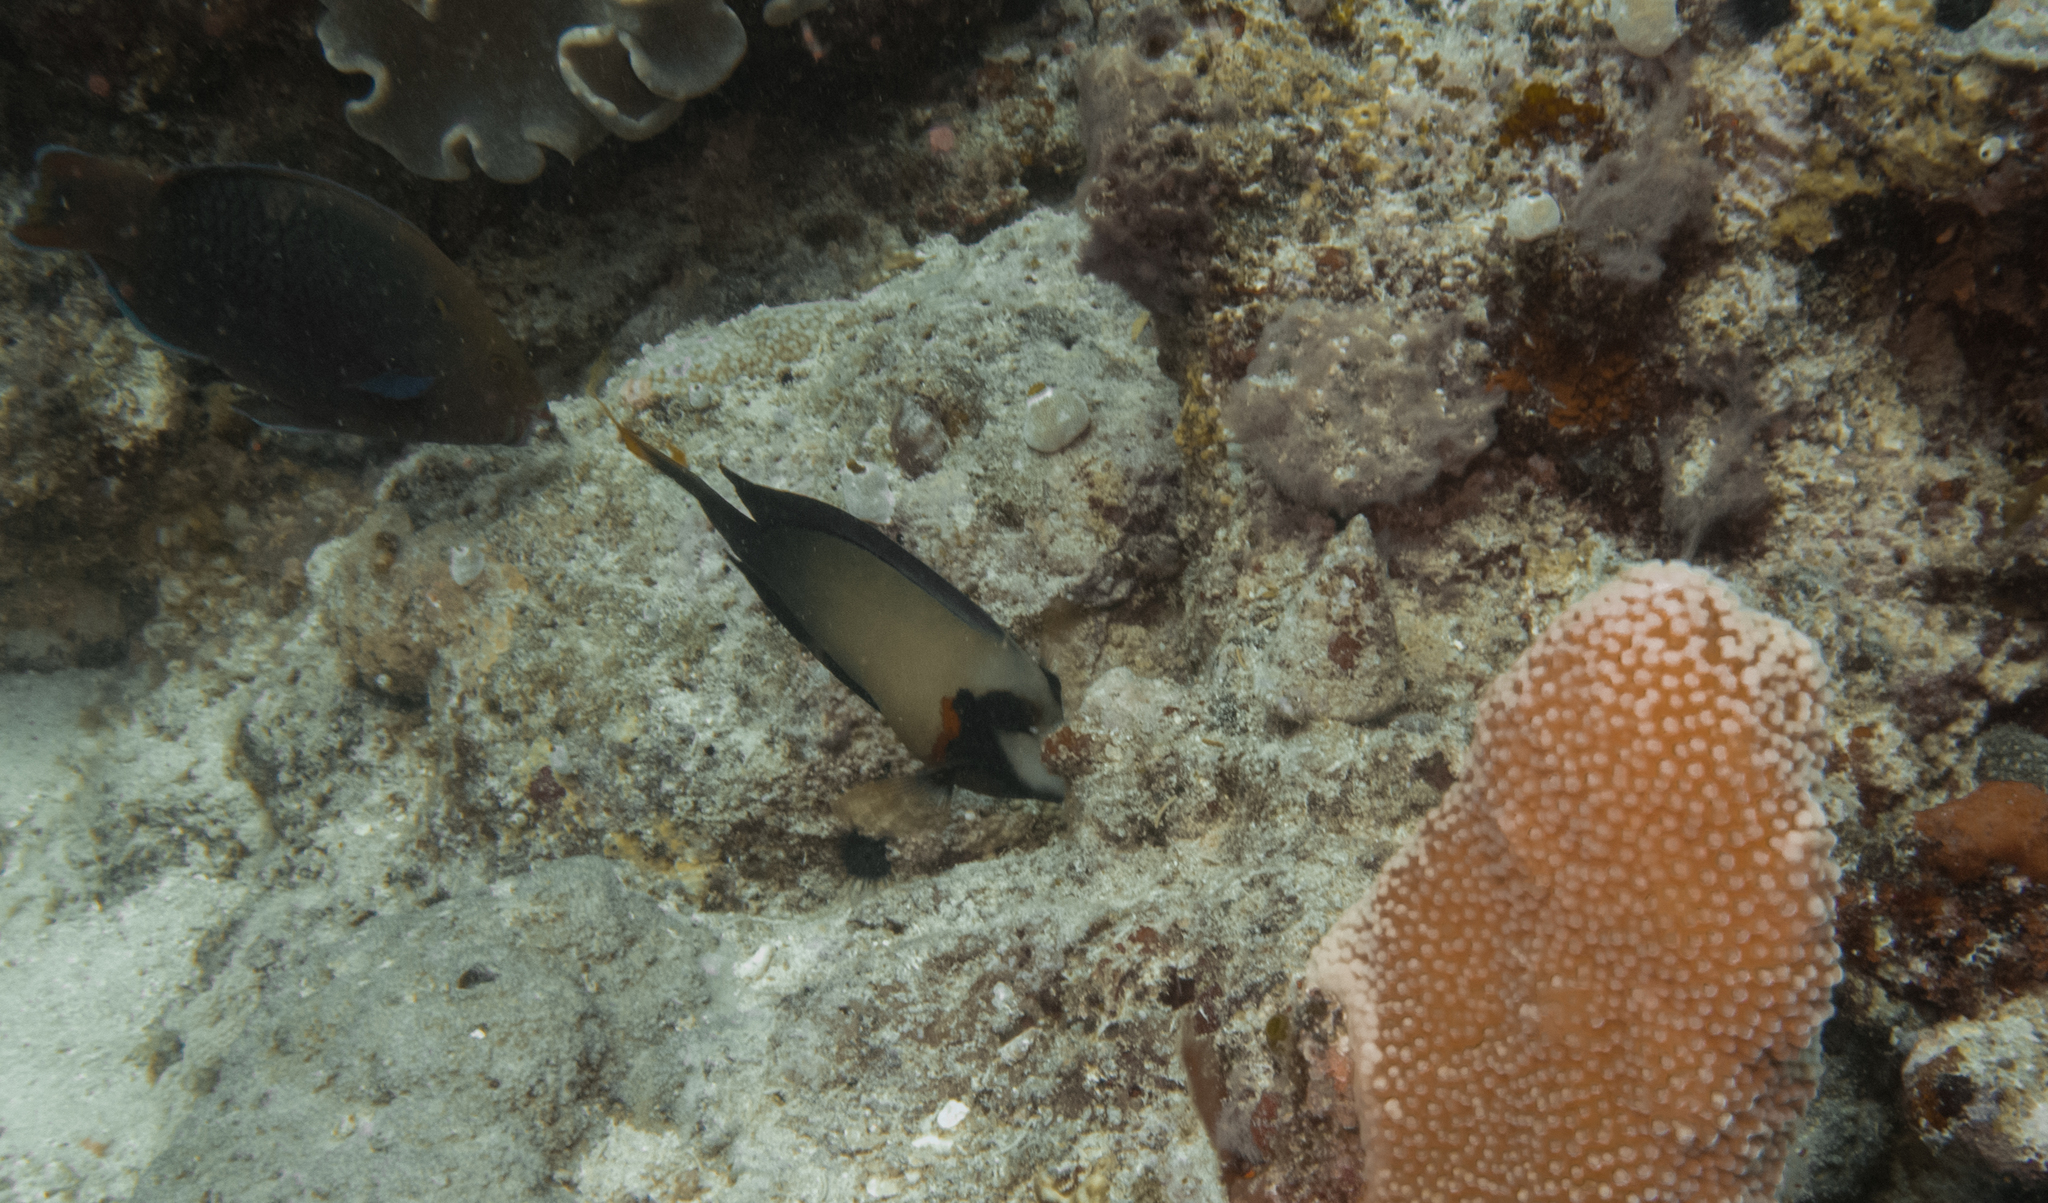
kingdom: Animalia
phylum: Chordata
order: Perciformes
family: Acanthuridae
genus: Acanthurus
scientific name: Acanthurus pyroferus
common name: Chocolate surgeonfish
